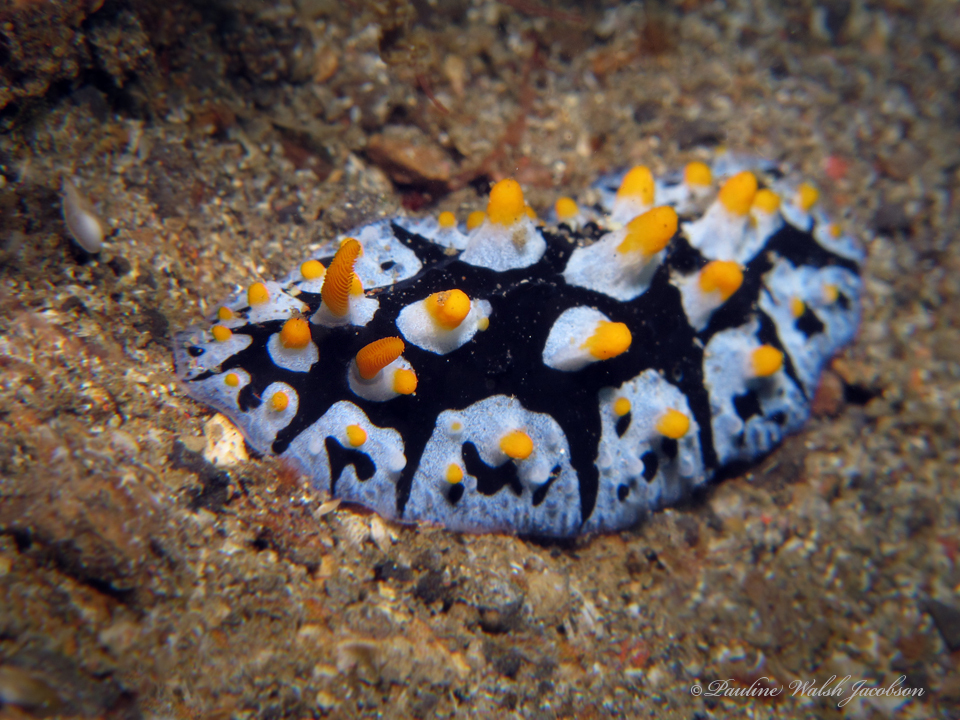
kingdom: Animalia
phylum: Mollusca
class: Gastropoda
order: Nudibranchia
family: Phyllidiidae
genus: Phyllidia
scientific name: Phyllidia picta
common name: Black-rayed phyllidia
